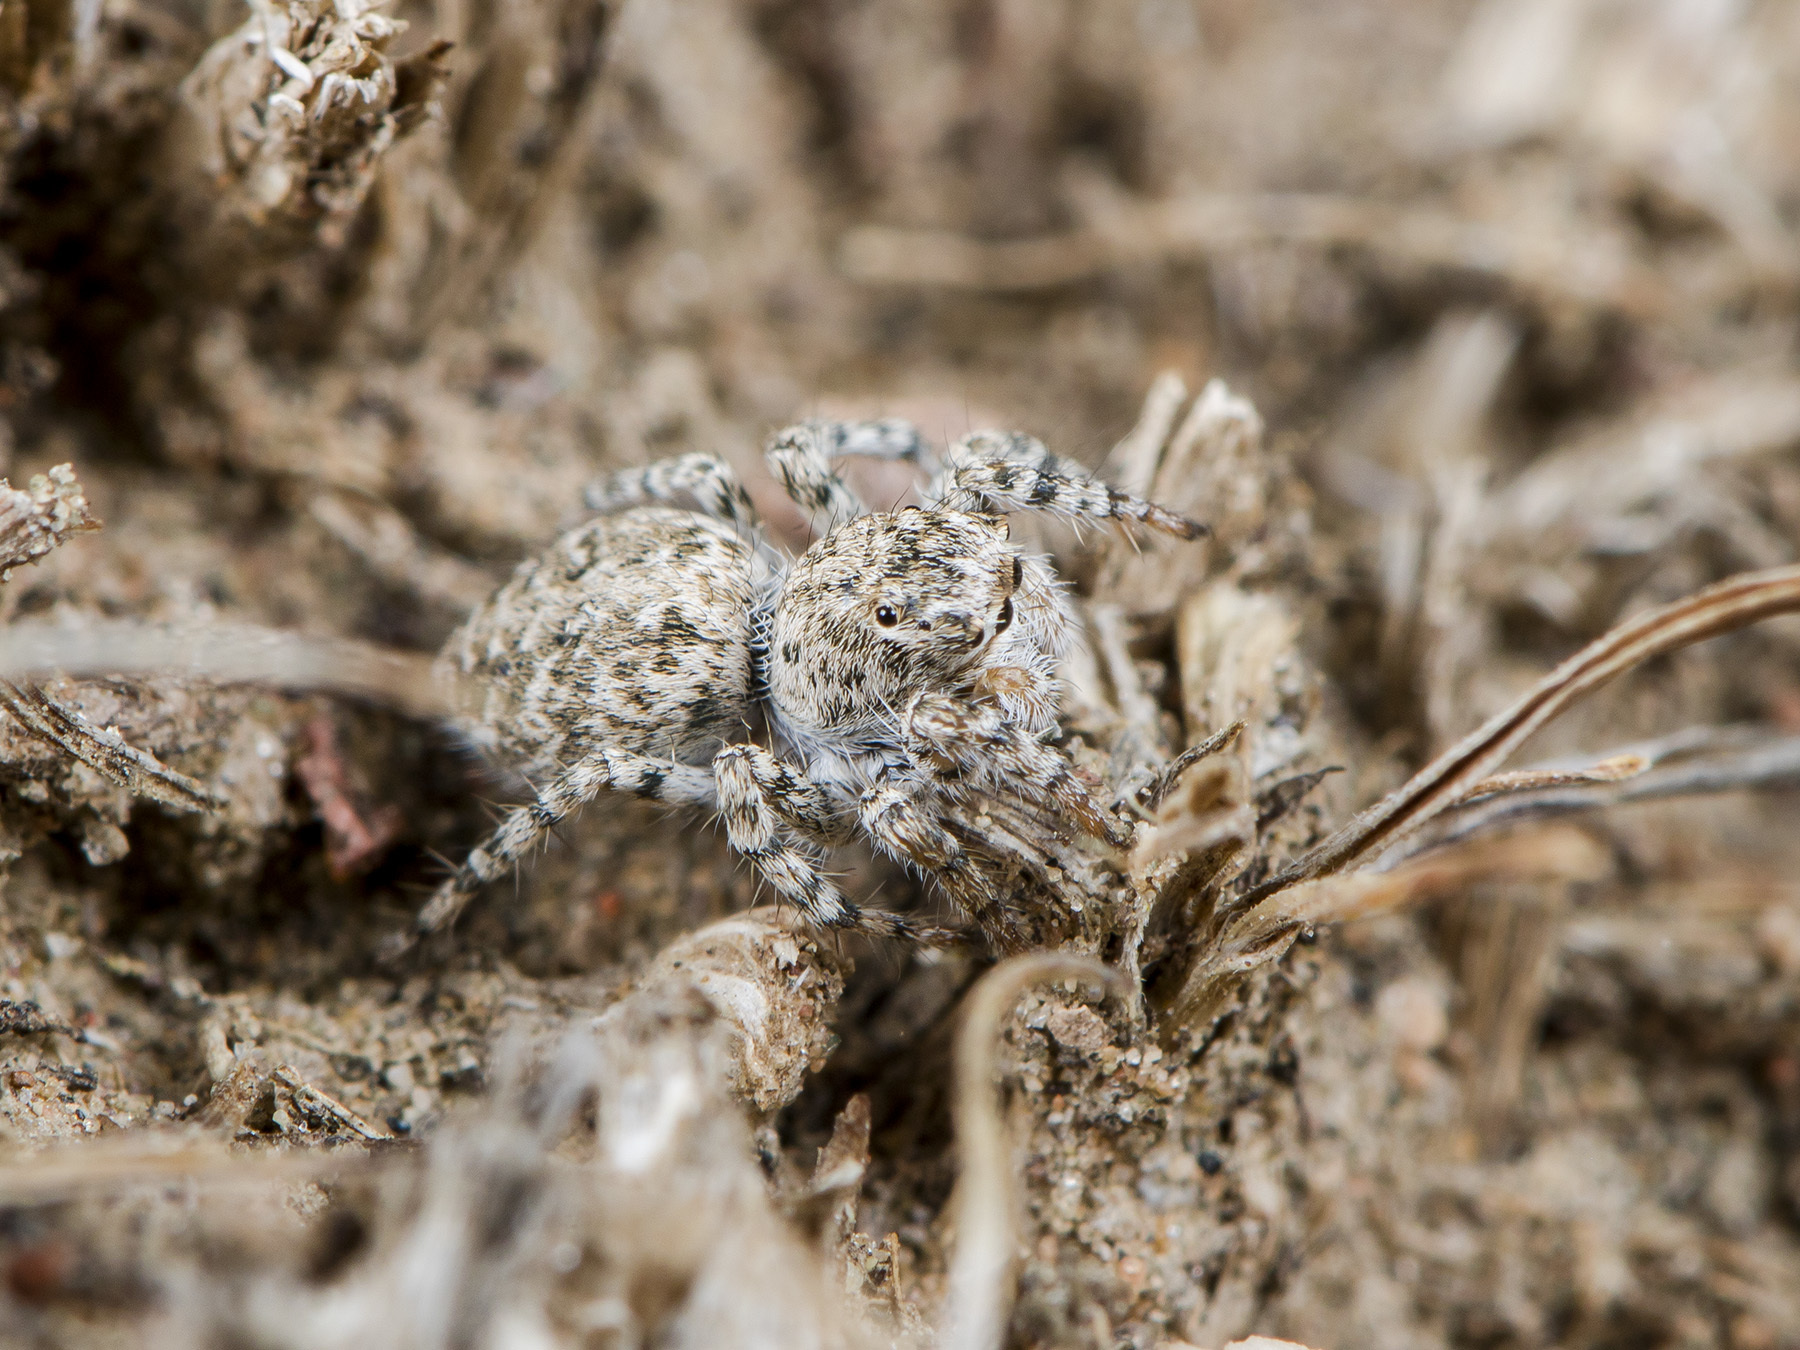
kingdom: Animalia
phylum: Arthropoda
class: Arachnida
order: Araneae
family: Salticidae
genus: Aelurillus
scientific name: Aelurillus dubatolovi
